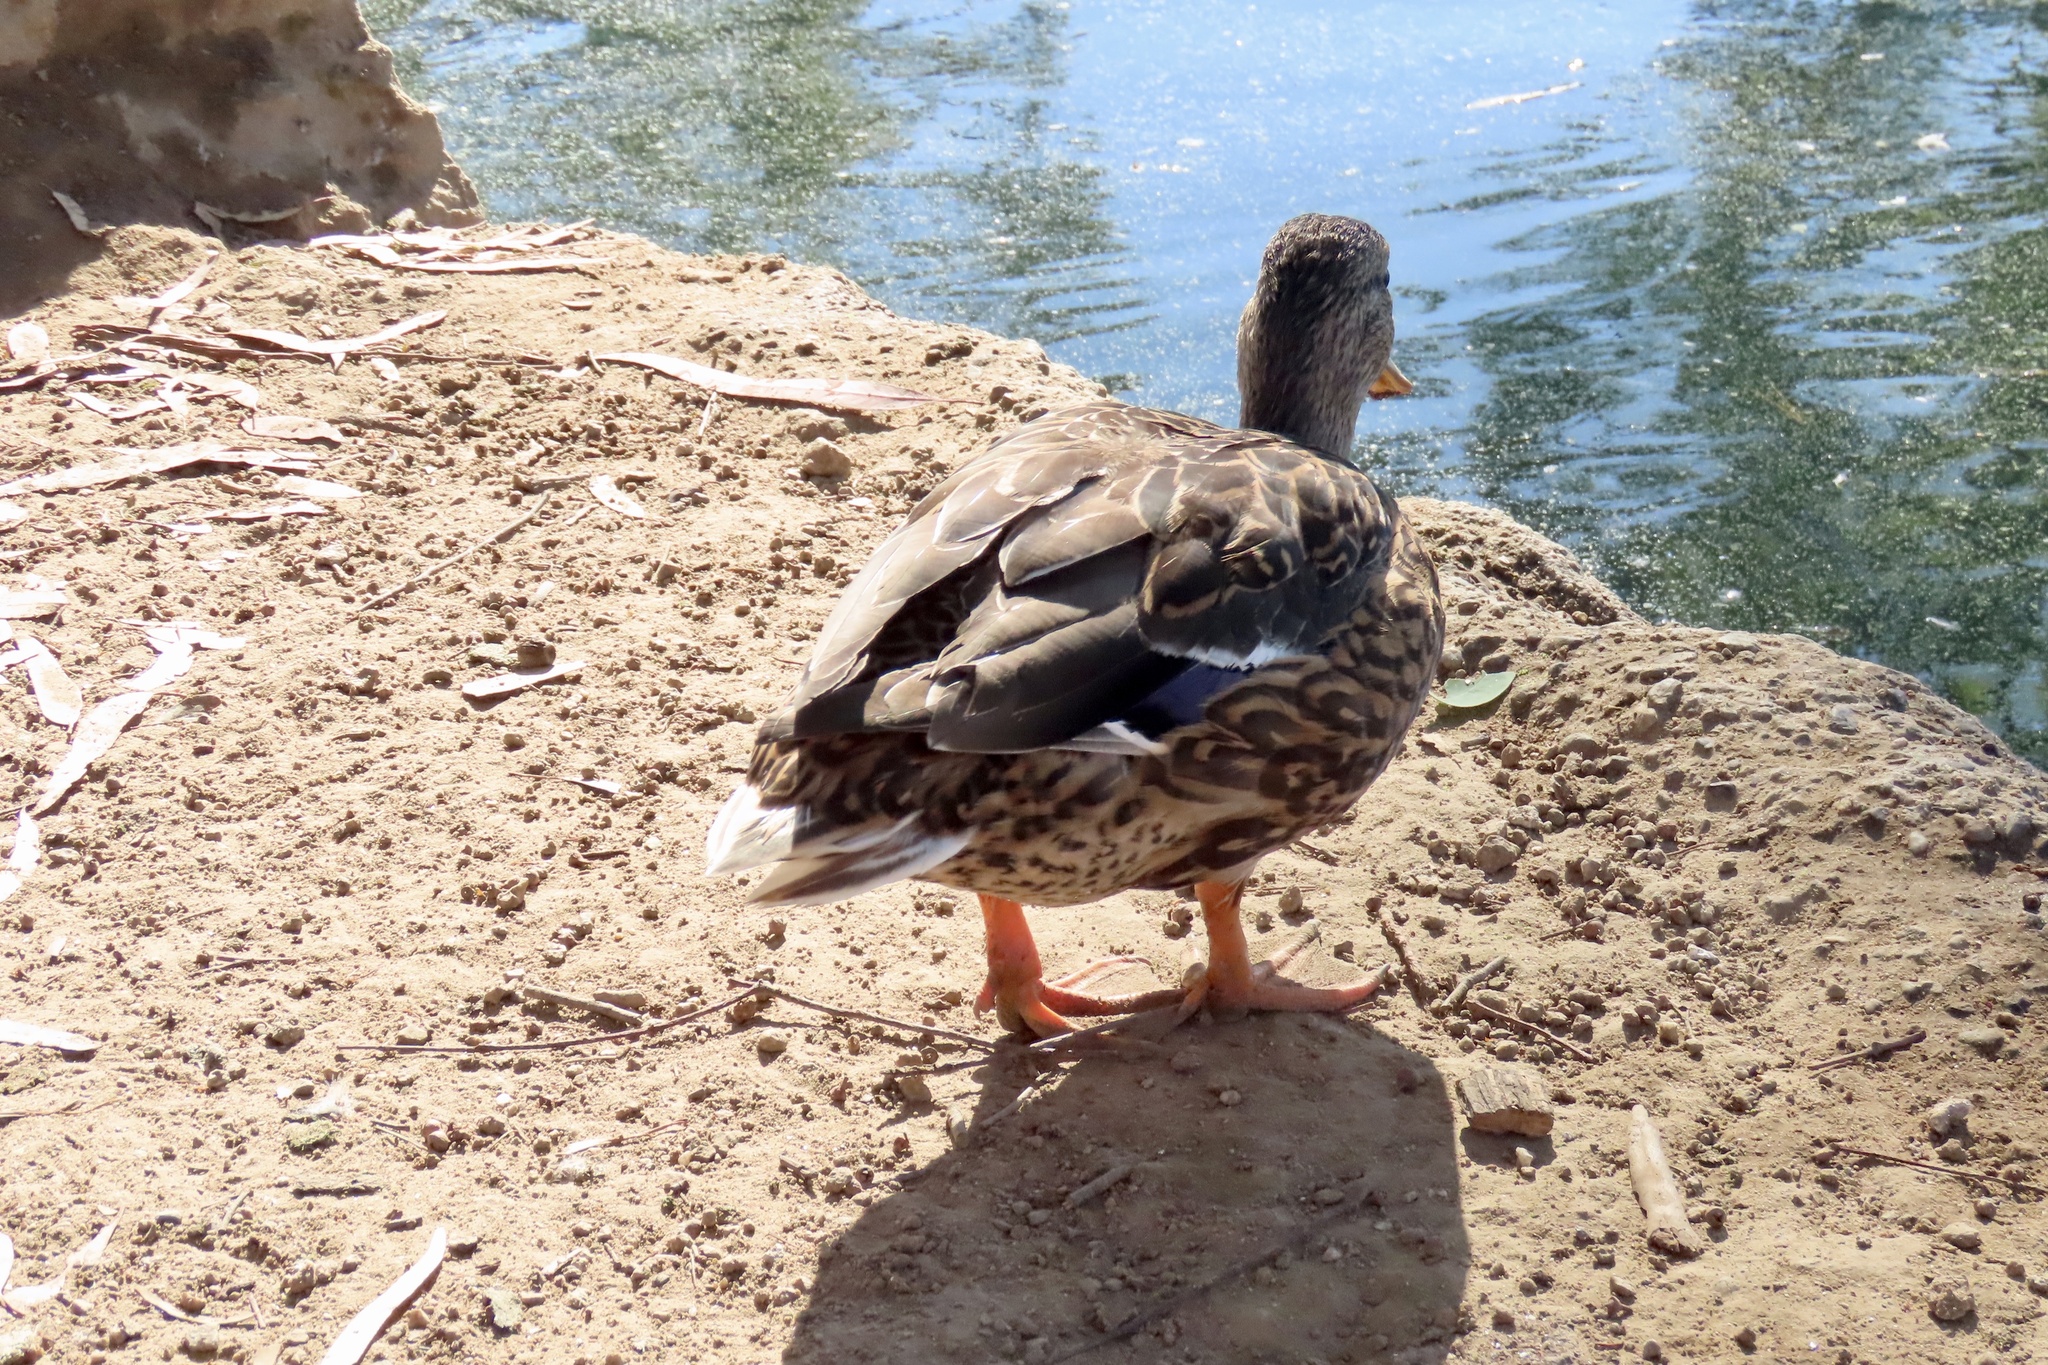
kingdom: Animalia
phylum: Chordata
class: Aves
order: Anseriformes
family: Anatidae
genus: Anas
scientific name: Anas platyrhynchos
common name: Mallard
